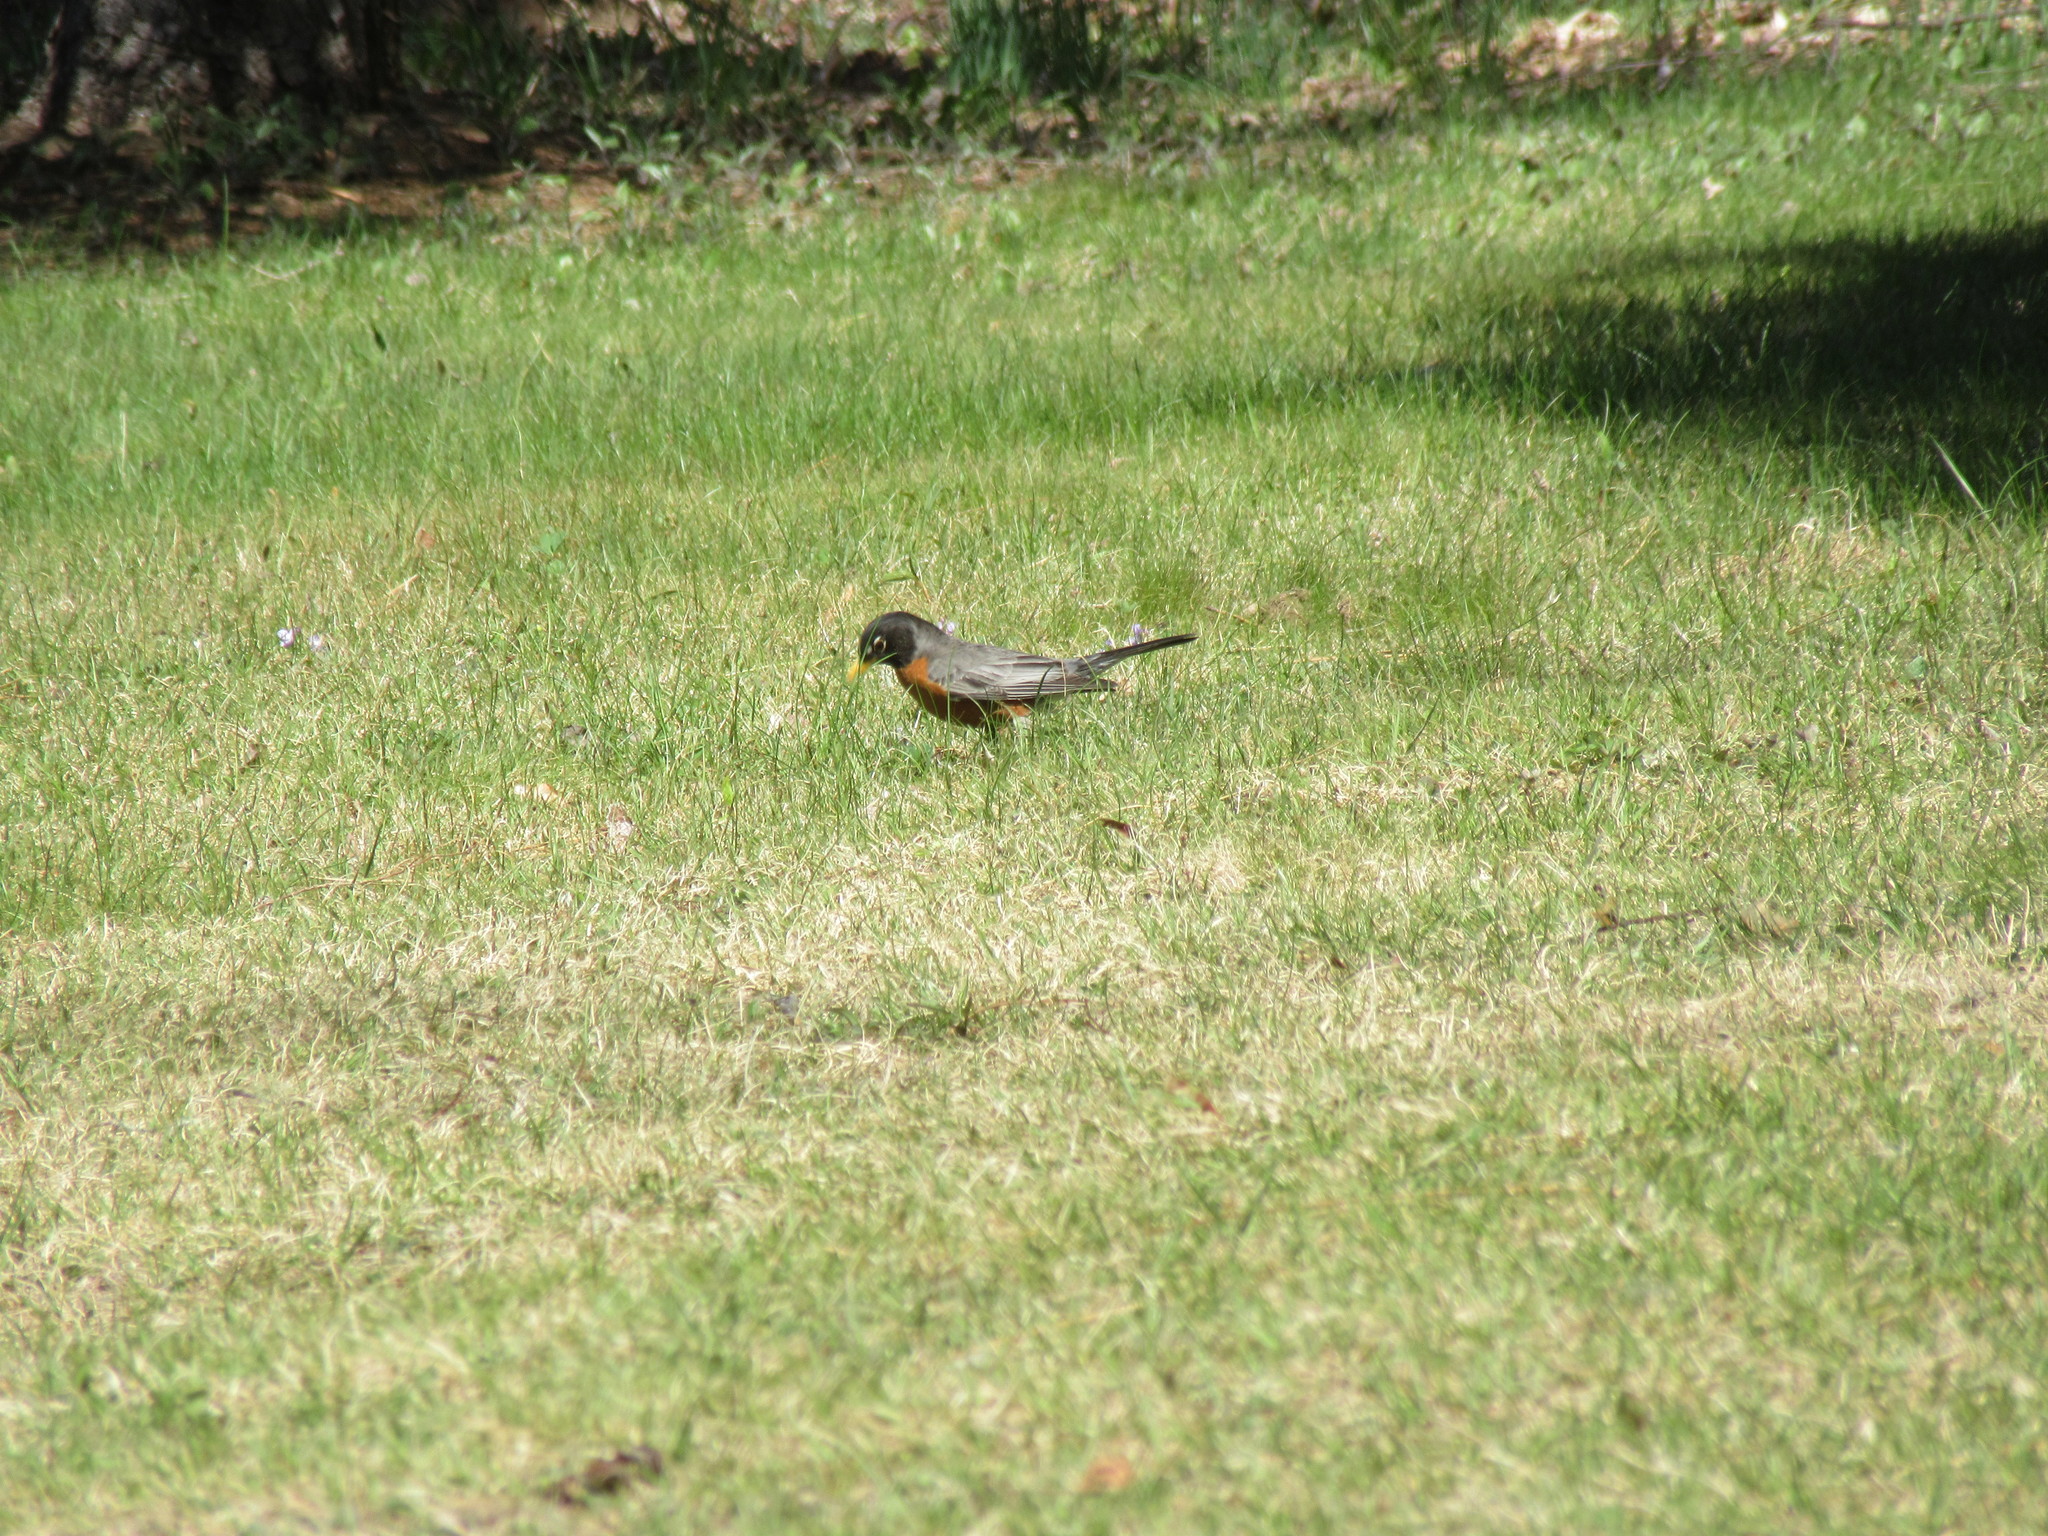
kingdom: Animalia
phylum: Chordata
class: Aves
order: Passeriformes
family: Turdidae
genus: Turdus
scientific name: Turdus migratorius
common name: American robin
